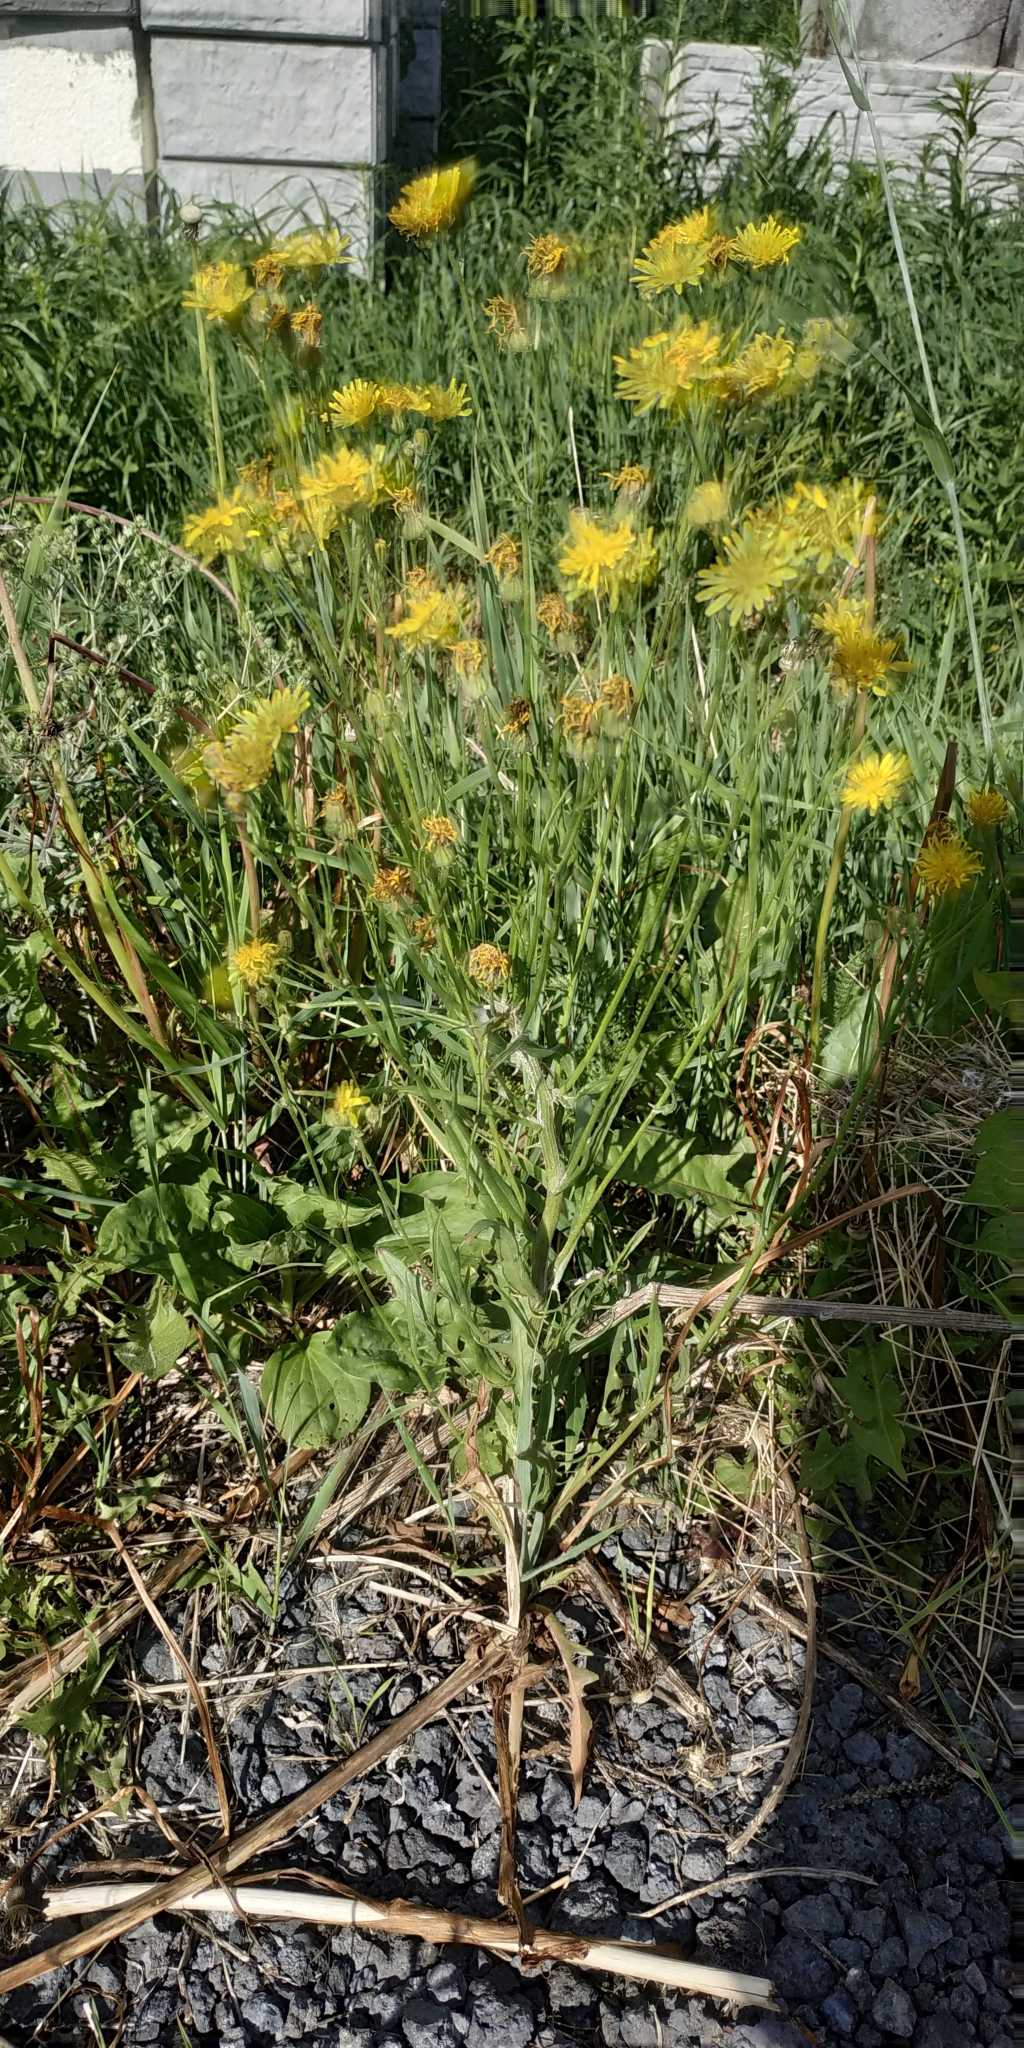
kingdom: Plantae
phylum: Tracheophyta
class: Magnoliopsida
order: Asterales
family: Asteraceae
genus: Crepis
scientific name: Crepis tectorum
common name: Narrow-leaved hawk's-beard
